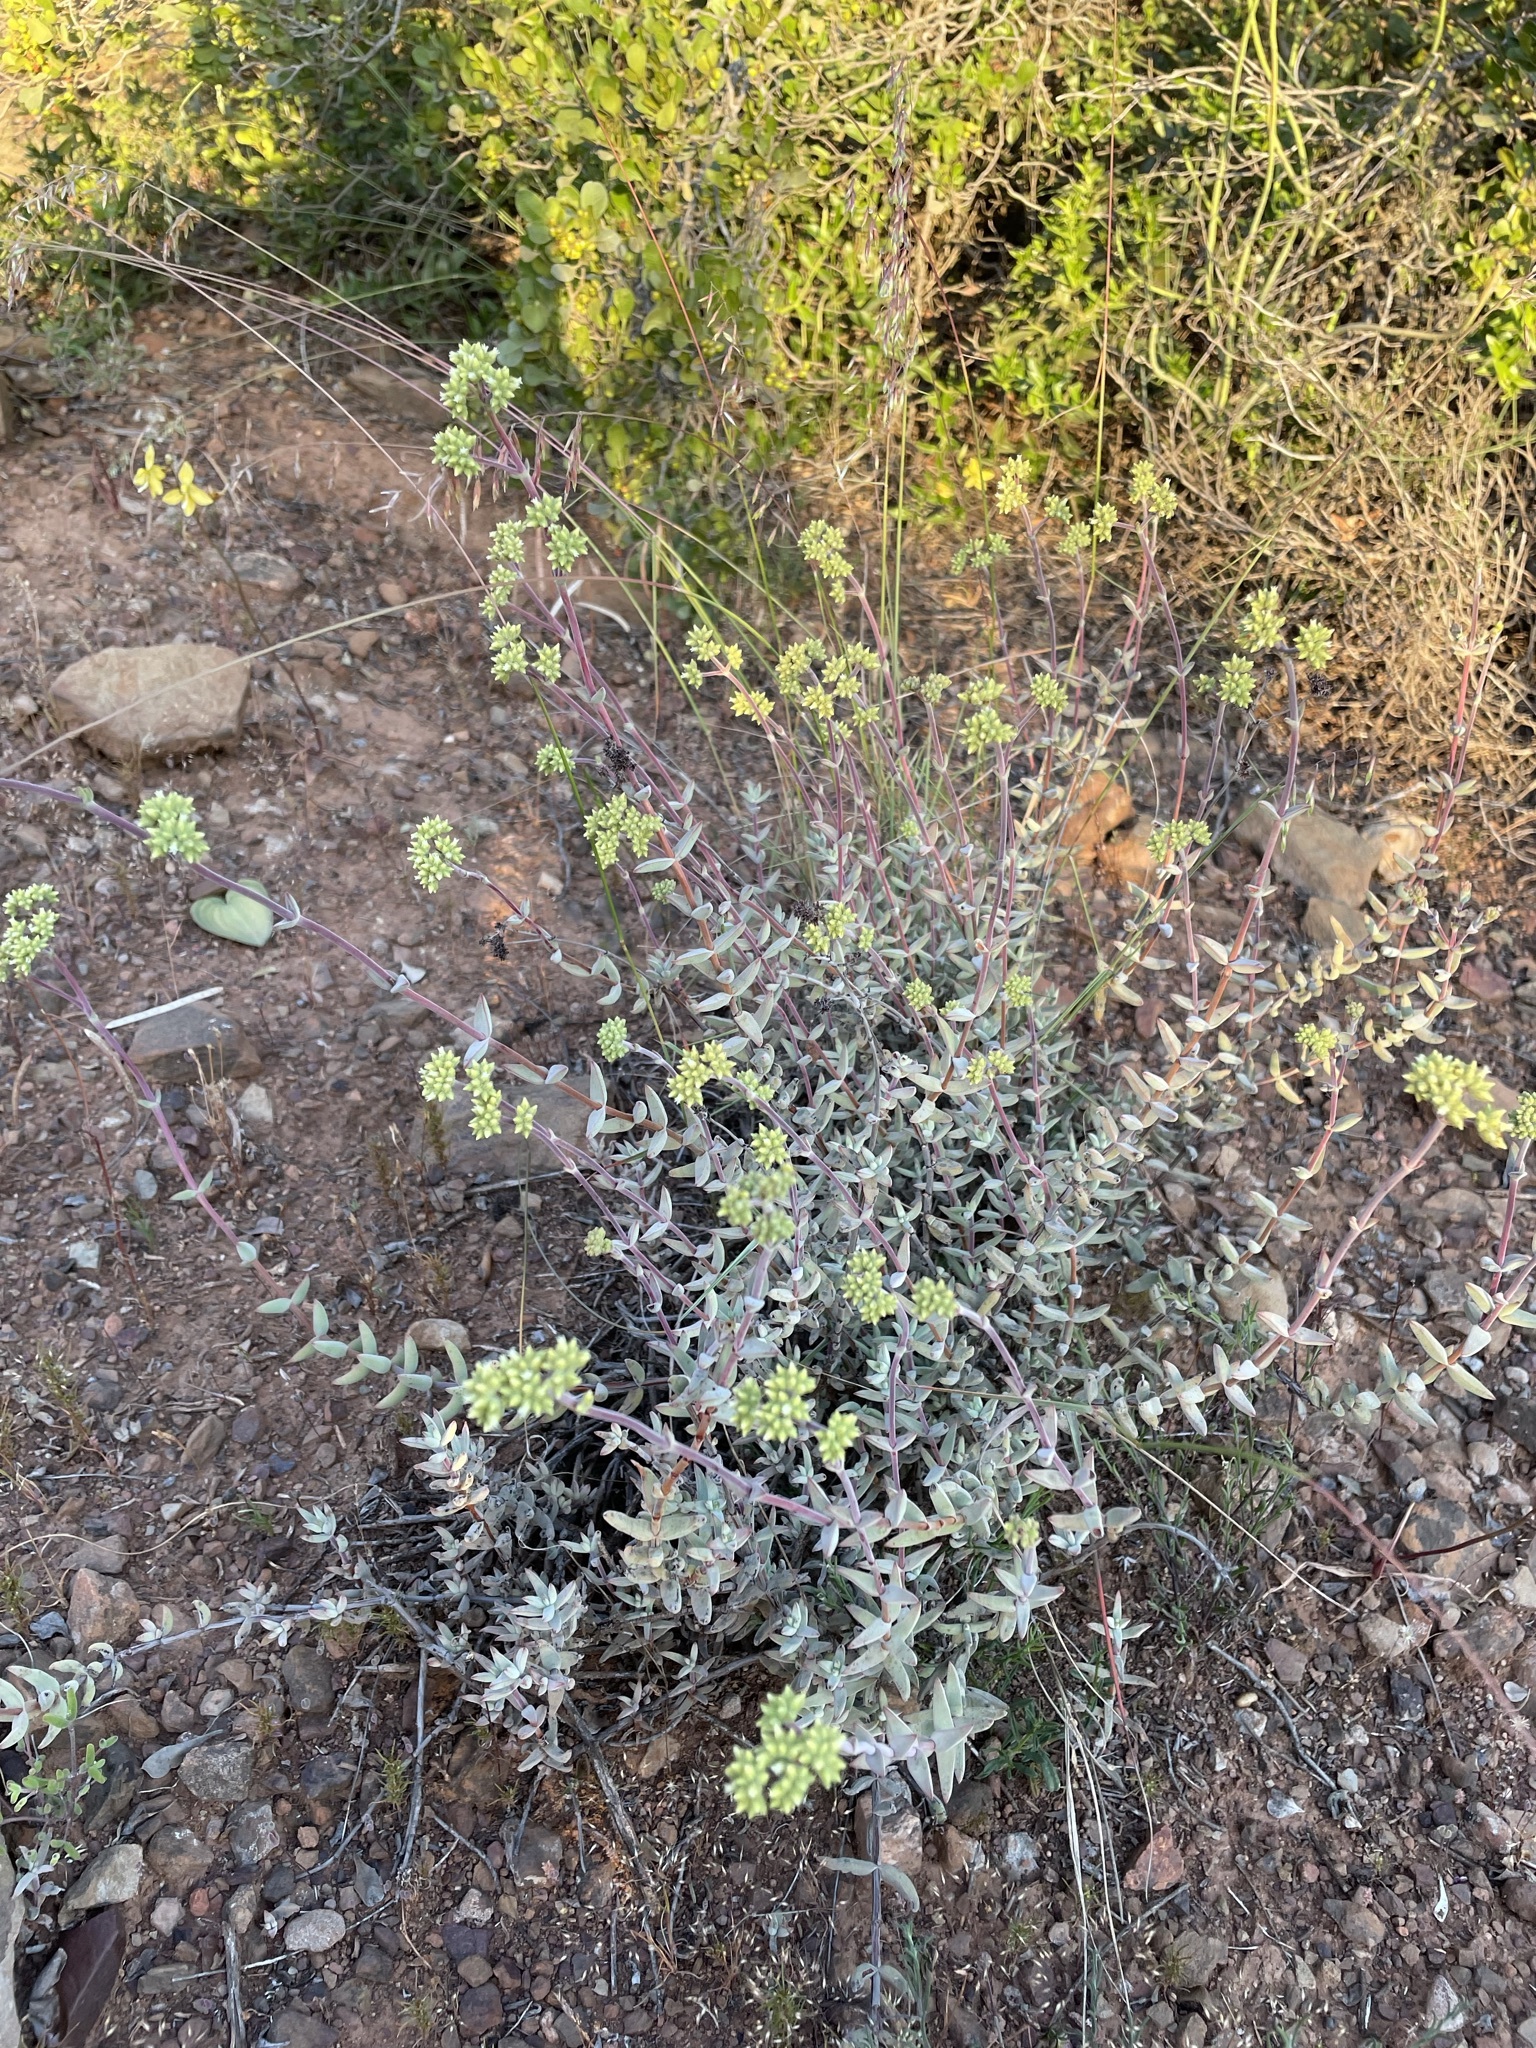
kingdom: Plantae
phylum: Tracheophyta
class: Magnoliopsida
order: Saxifragales
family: Crassulaceae
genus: Crassula
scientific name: Crassula subaphylla
